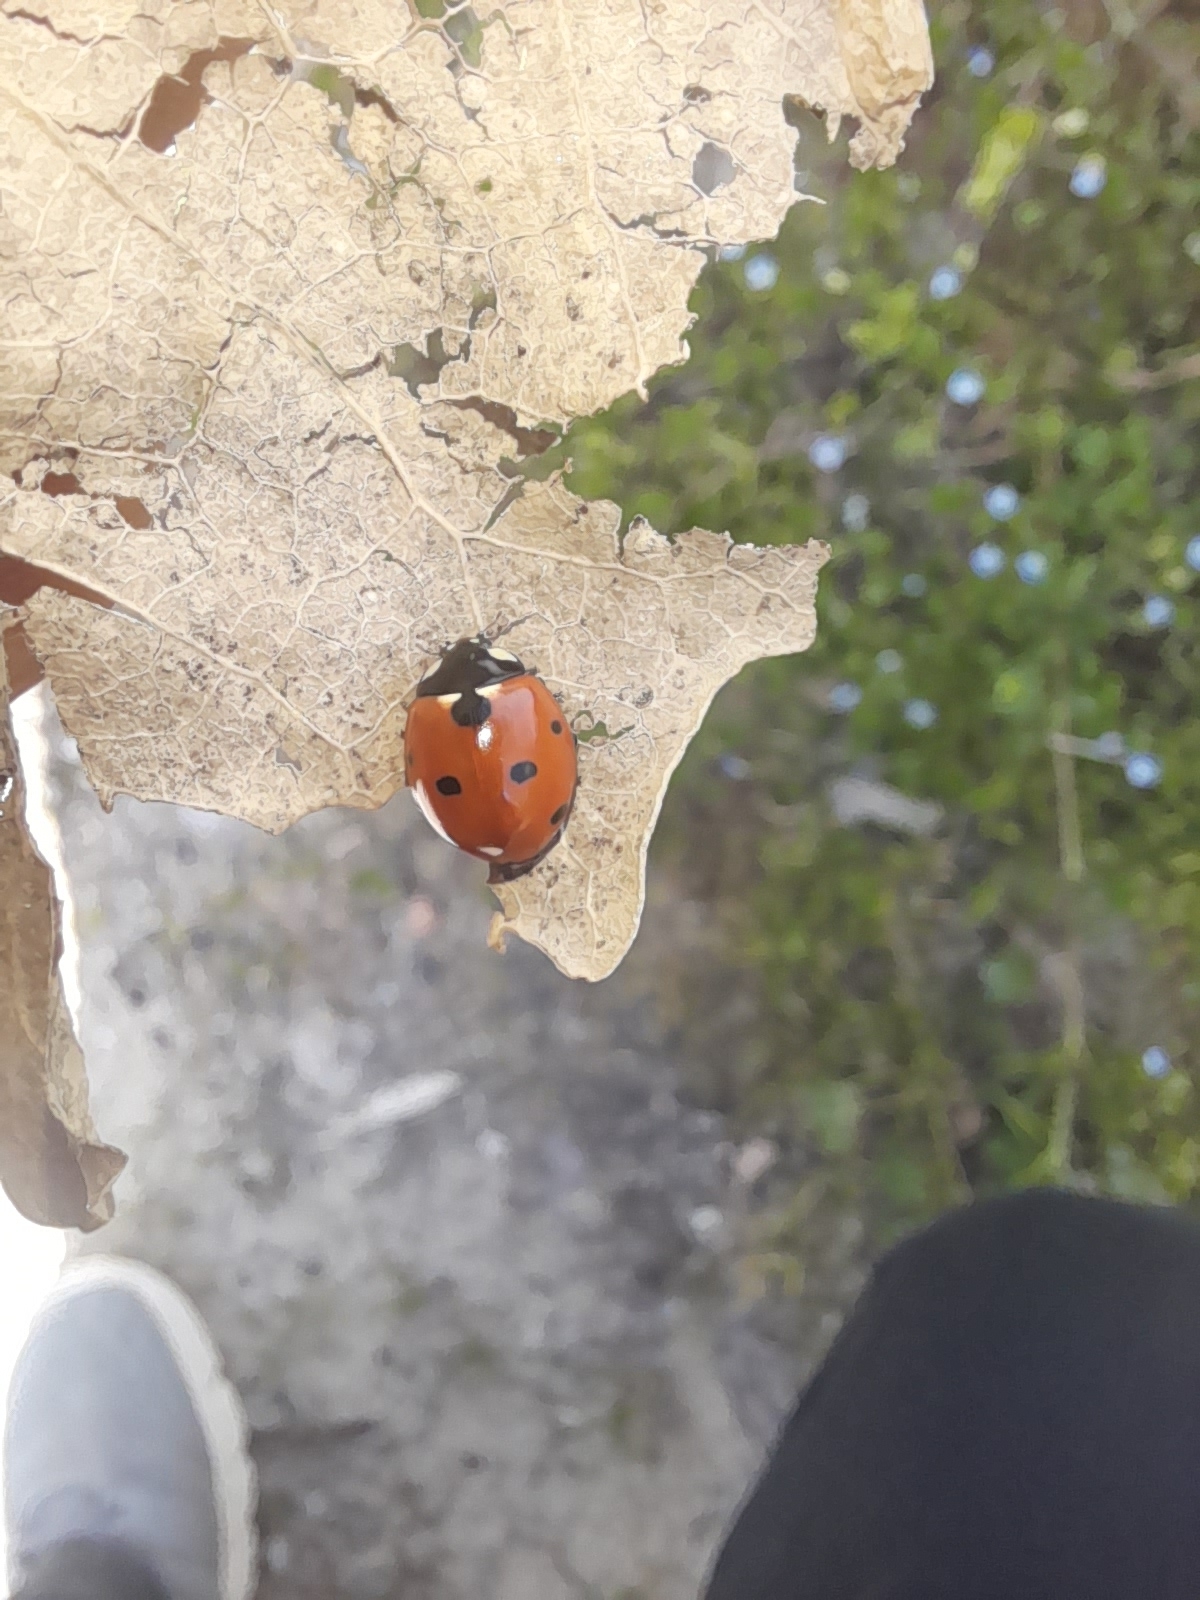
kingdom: Animalia
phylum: Arthropoda
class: Insecta
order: Coleoptera
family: Coccinellidae
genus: Coccinella
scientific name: Coccinella septempunctata
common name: Sevenspotted lady beetle
